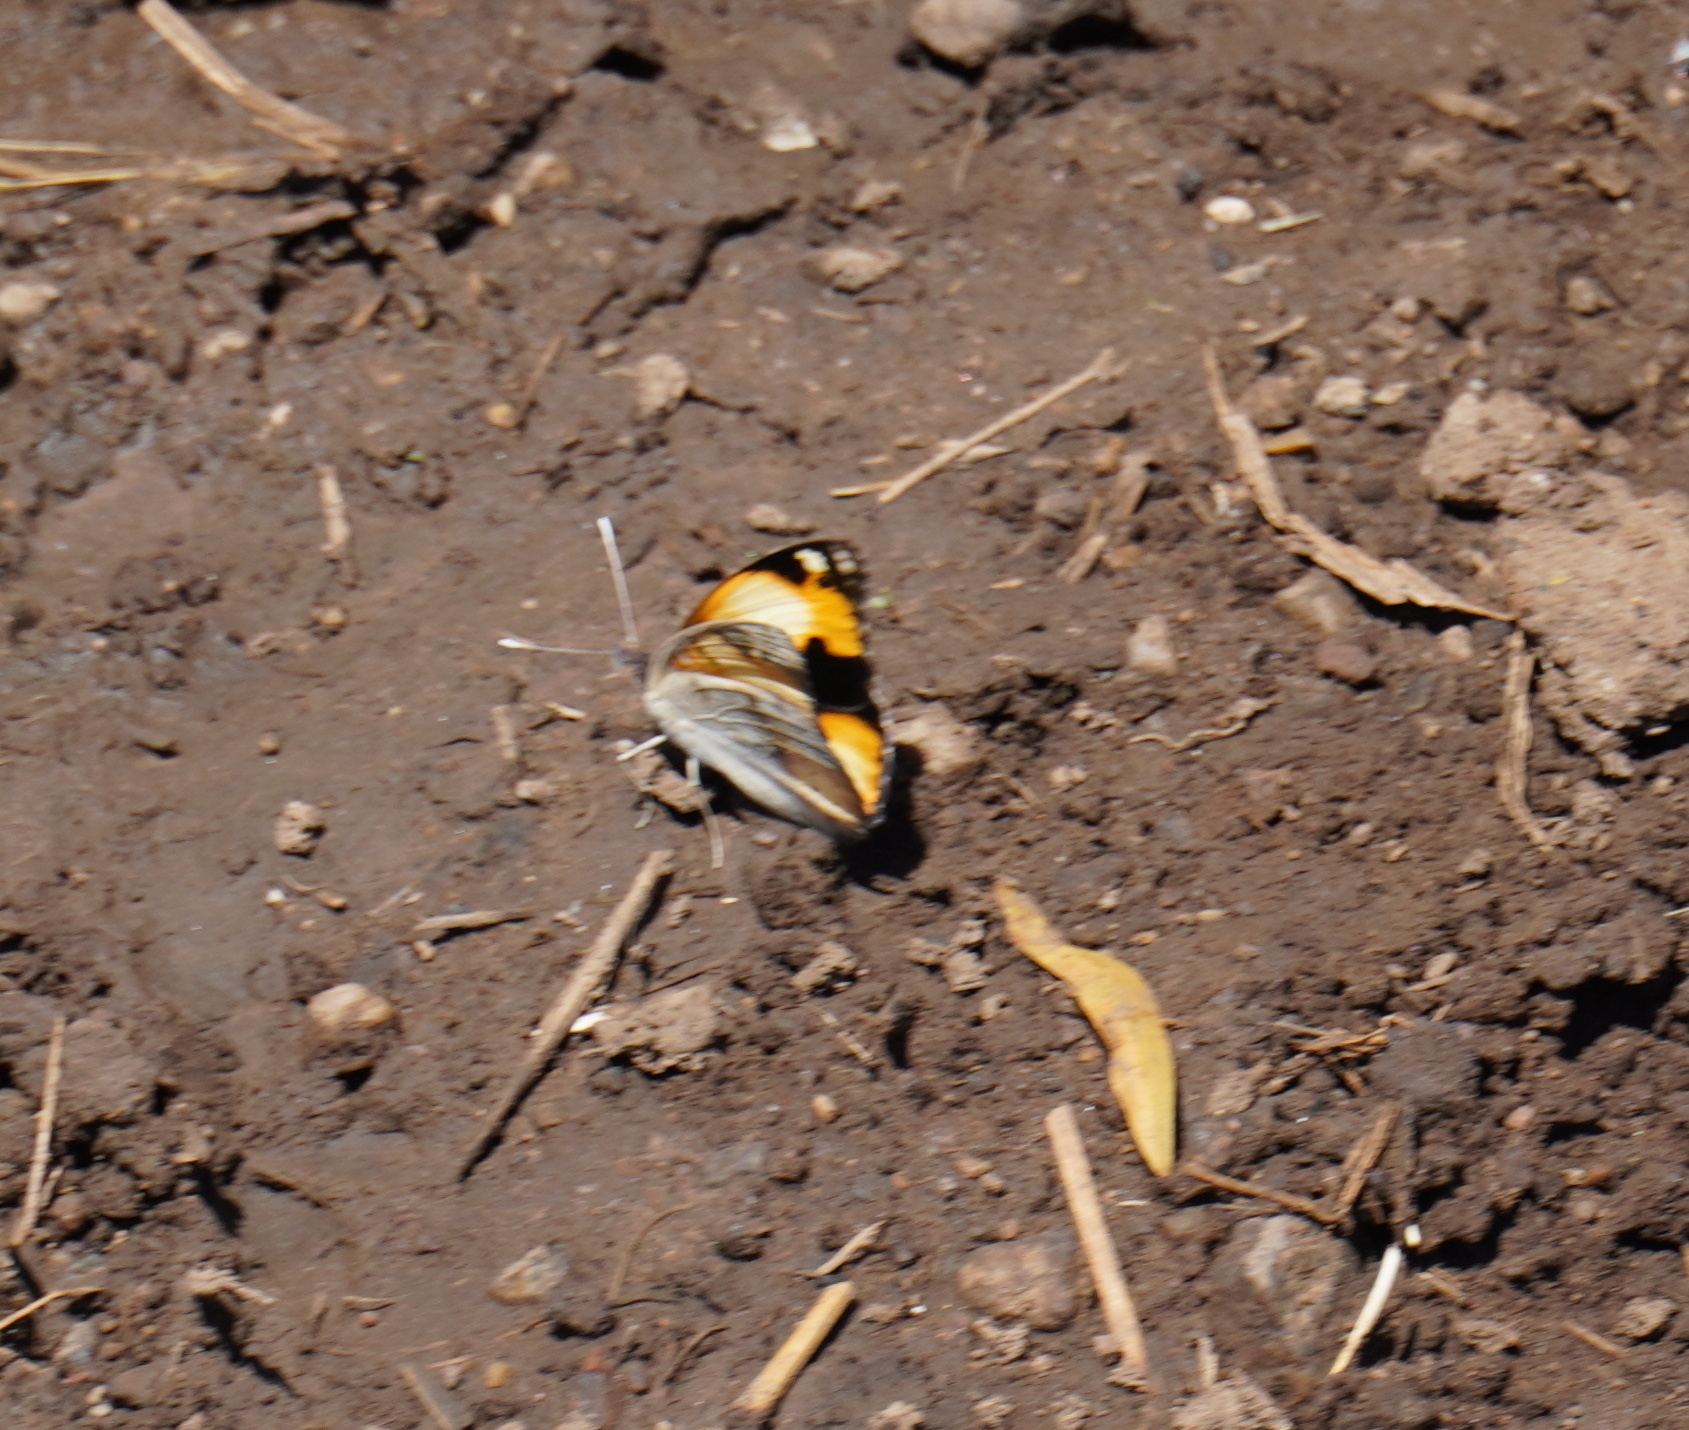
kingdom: Animalia
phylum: Arthropoda
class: Insecta
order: Lepidoptera
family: Nymphalidae
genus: Junonia
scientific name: Junonia hierta
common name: Yellow pansy
